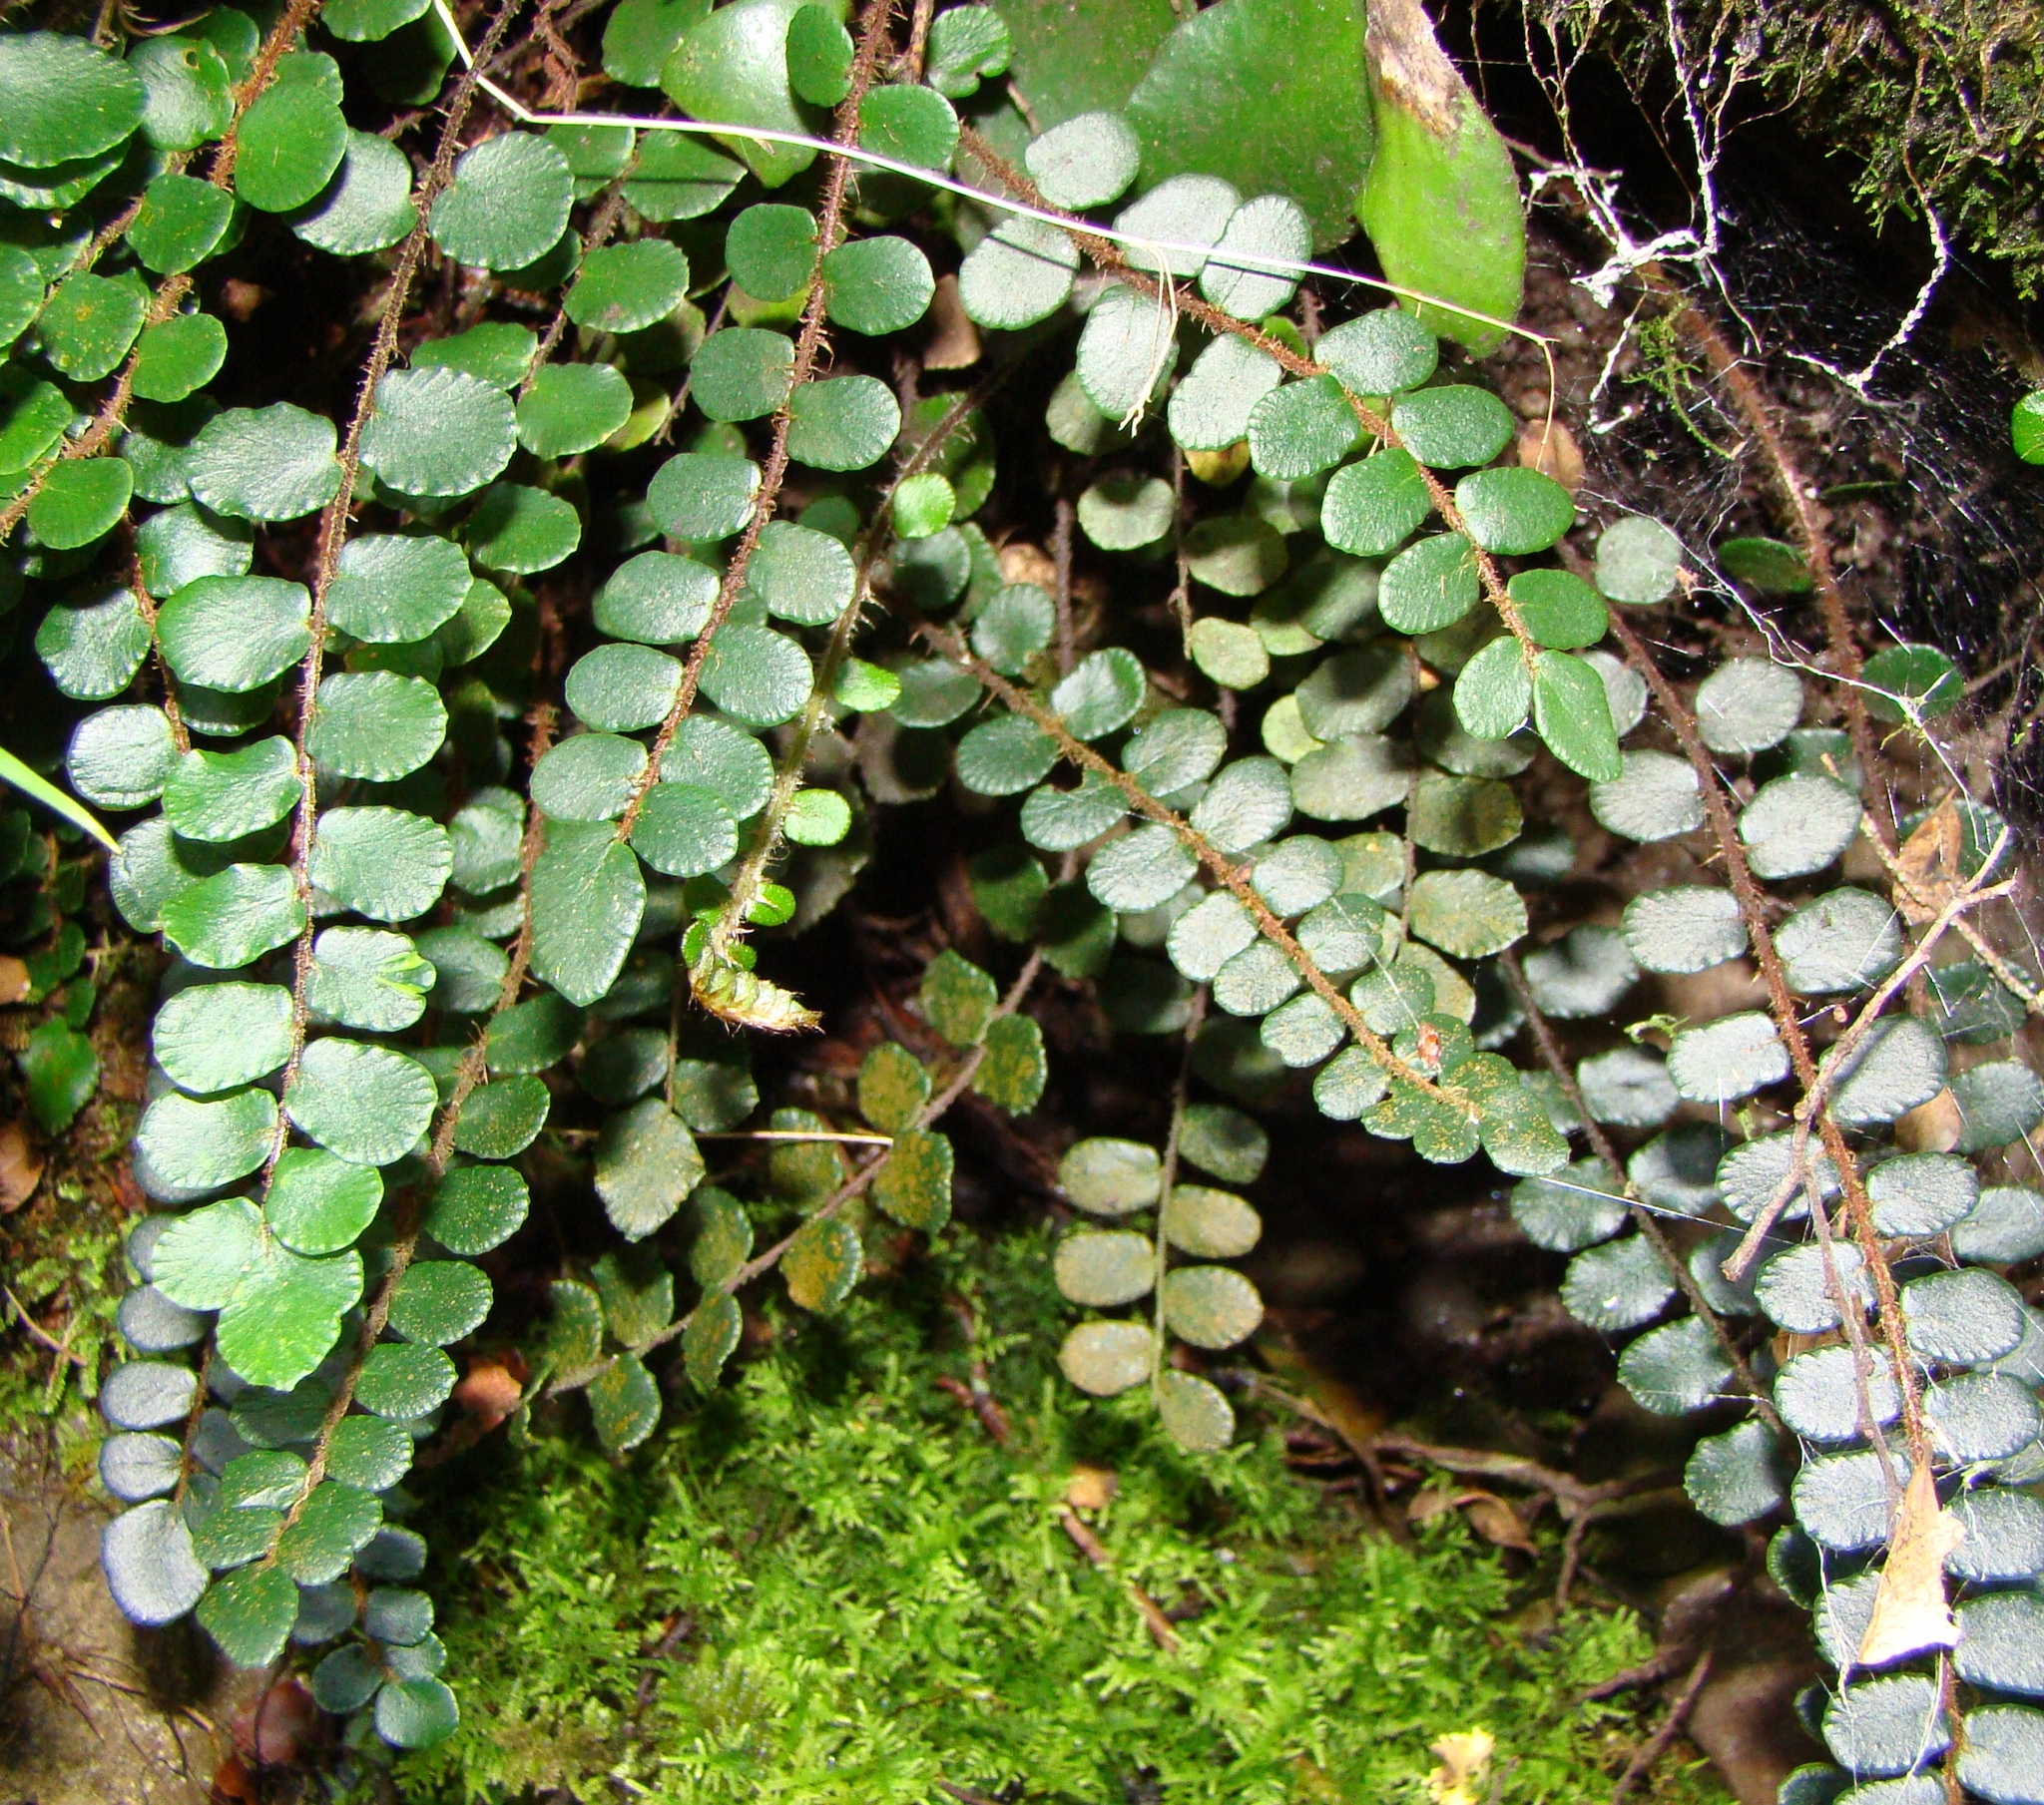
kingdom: Plantae
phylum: Tracheophyta
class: Polypodiopsida
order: Polypodiales
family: Pteridaceae
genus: Pellaea
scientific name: Pellaea rotundifolia
